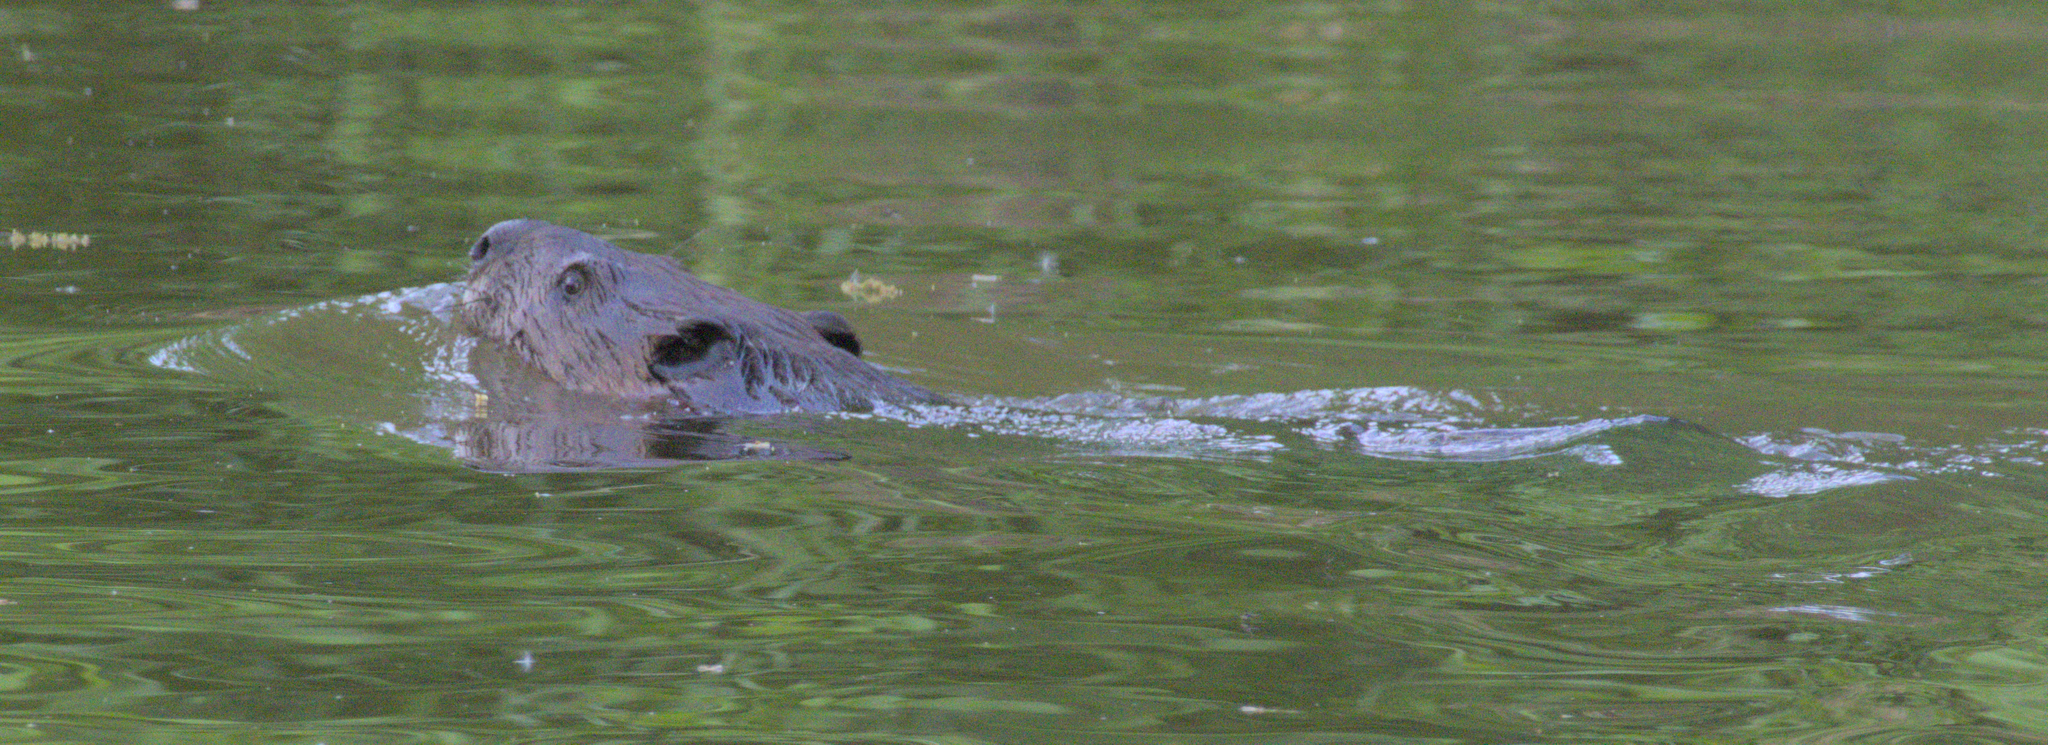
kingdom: Animalia
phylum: Chordata
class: Mammalia
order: Rodentia
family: Castoridae
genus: Castor
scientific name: Castor canadensis
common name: American beaver
